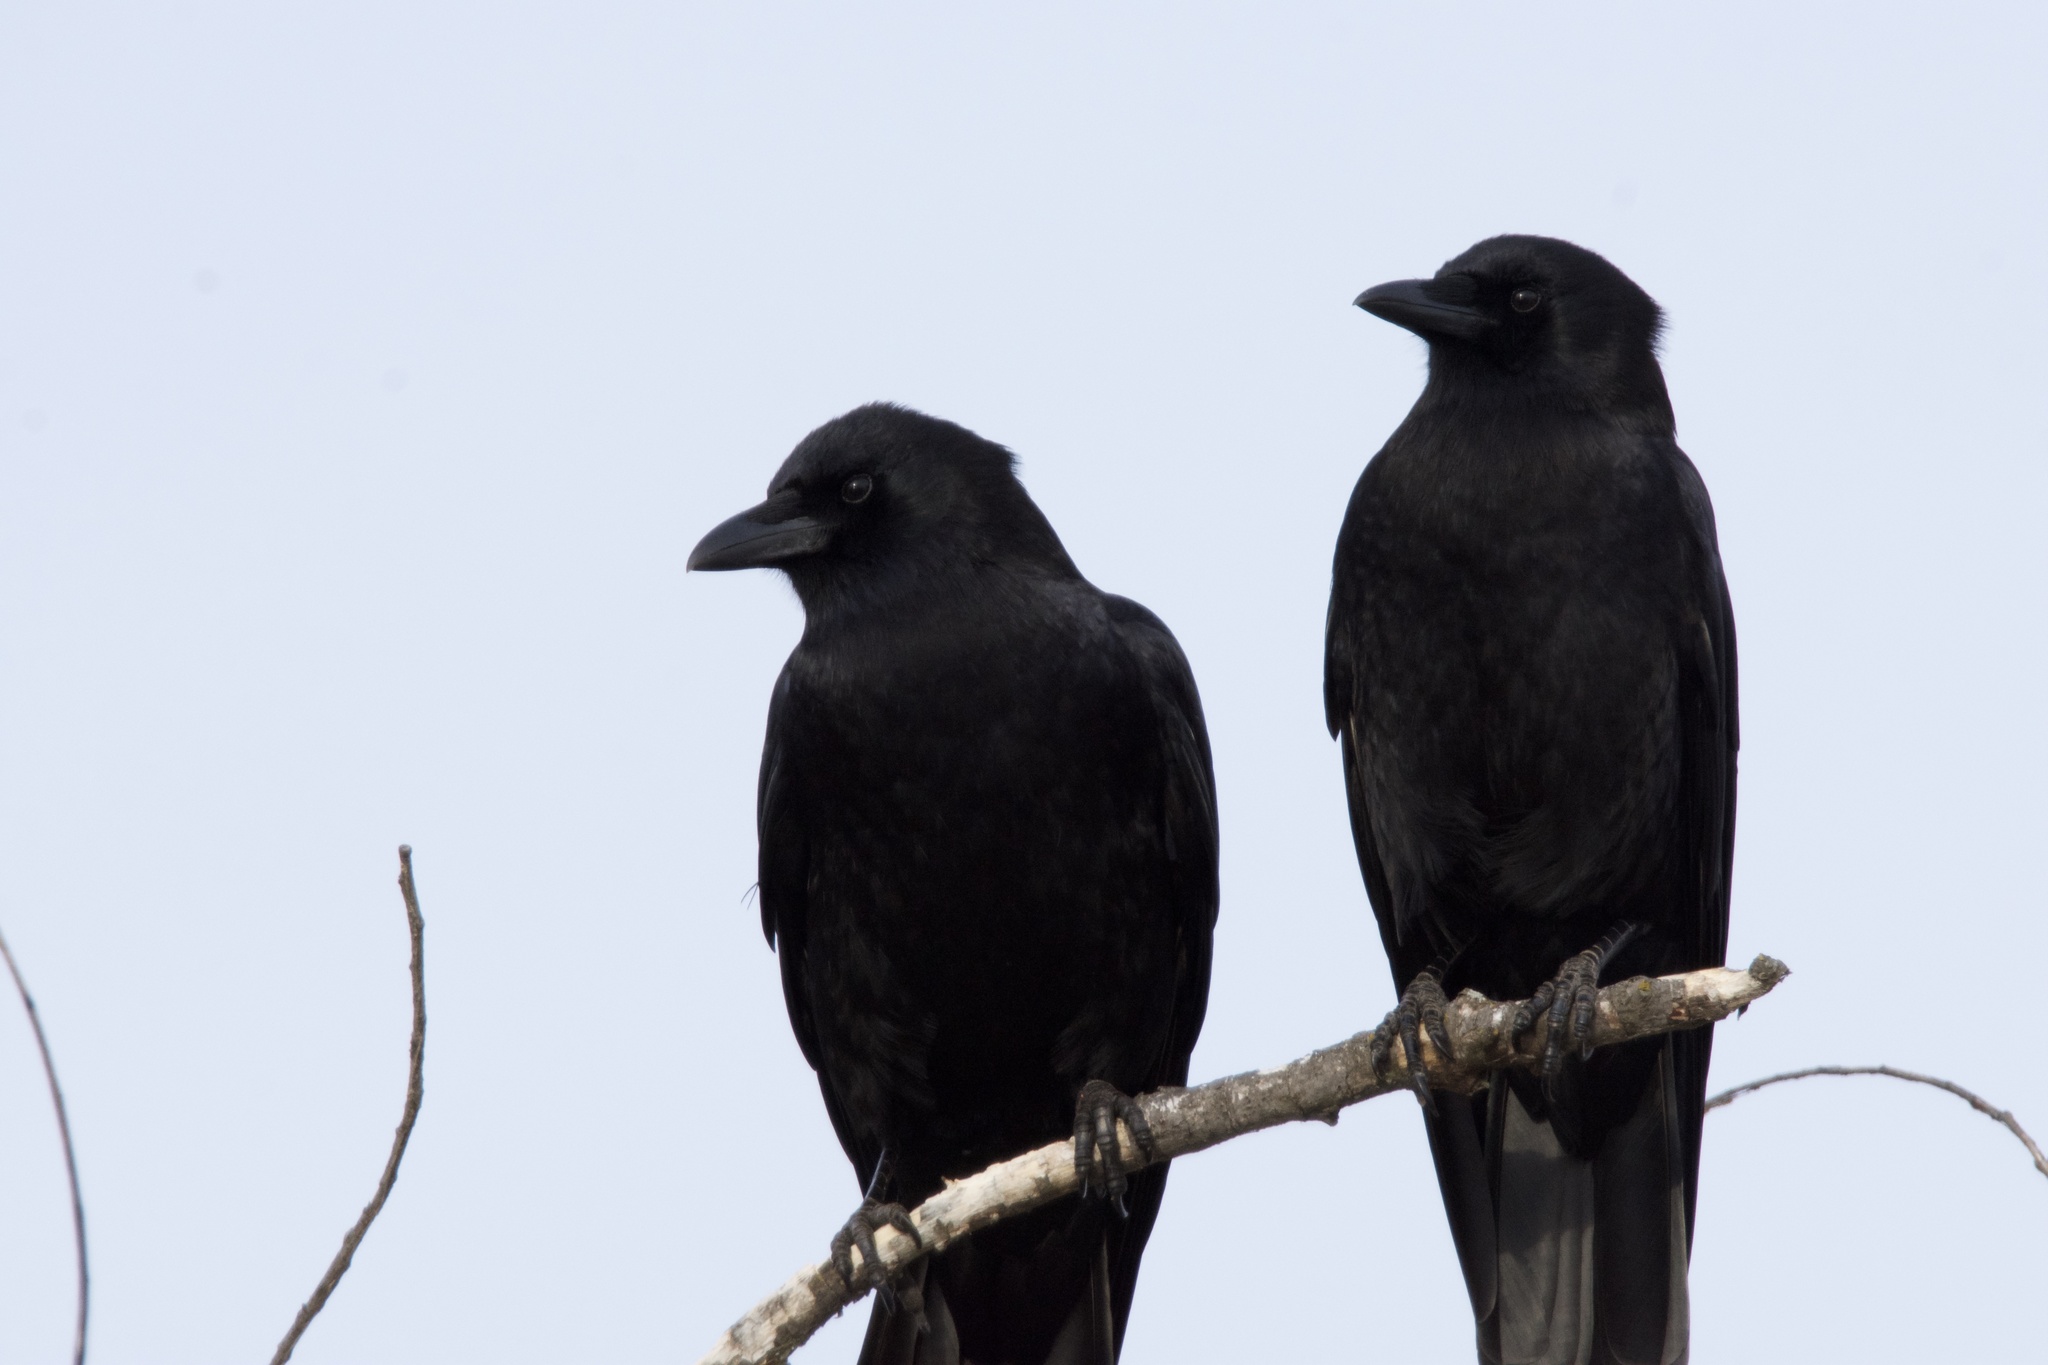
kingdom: Animalia
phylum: Chordata
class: Aves
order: Passeriformes
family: Corvidae
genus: Corvus
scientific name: Corvus brachyrhynchos
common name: American crow
